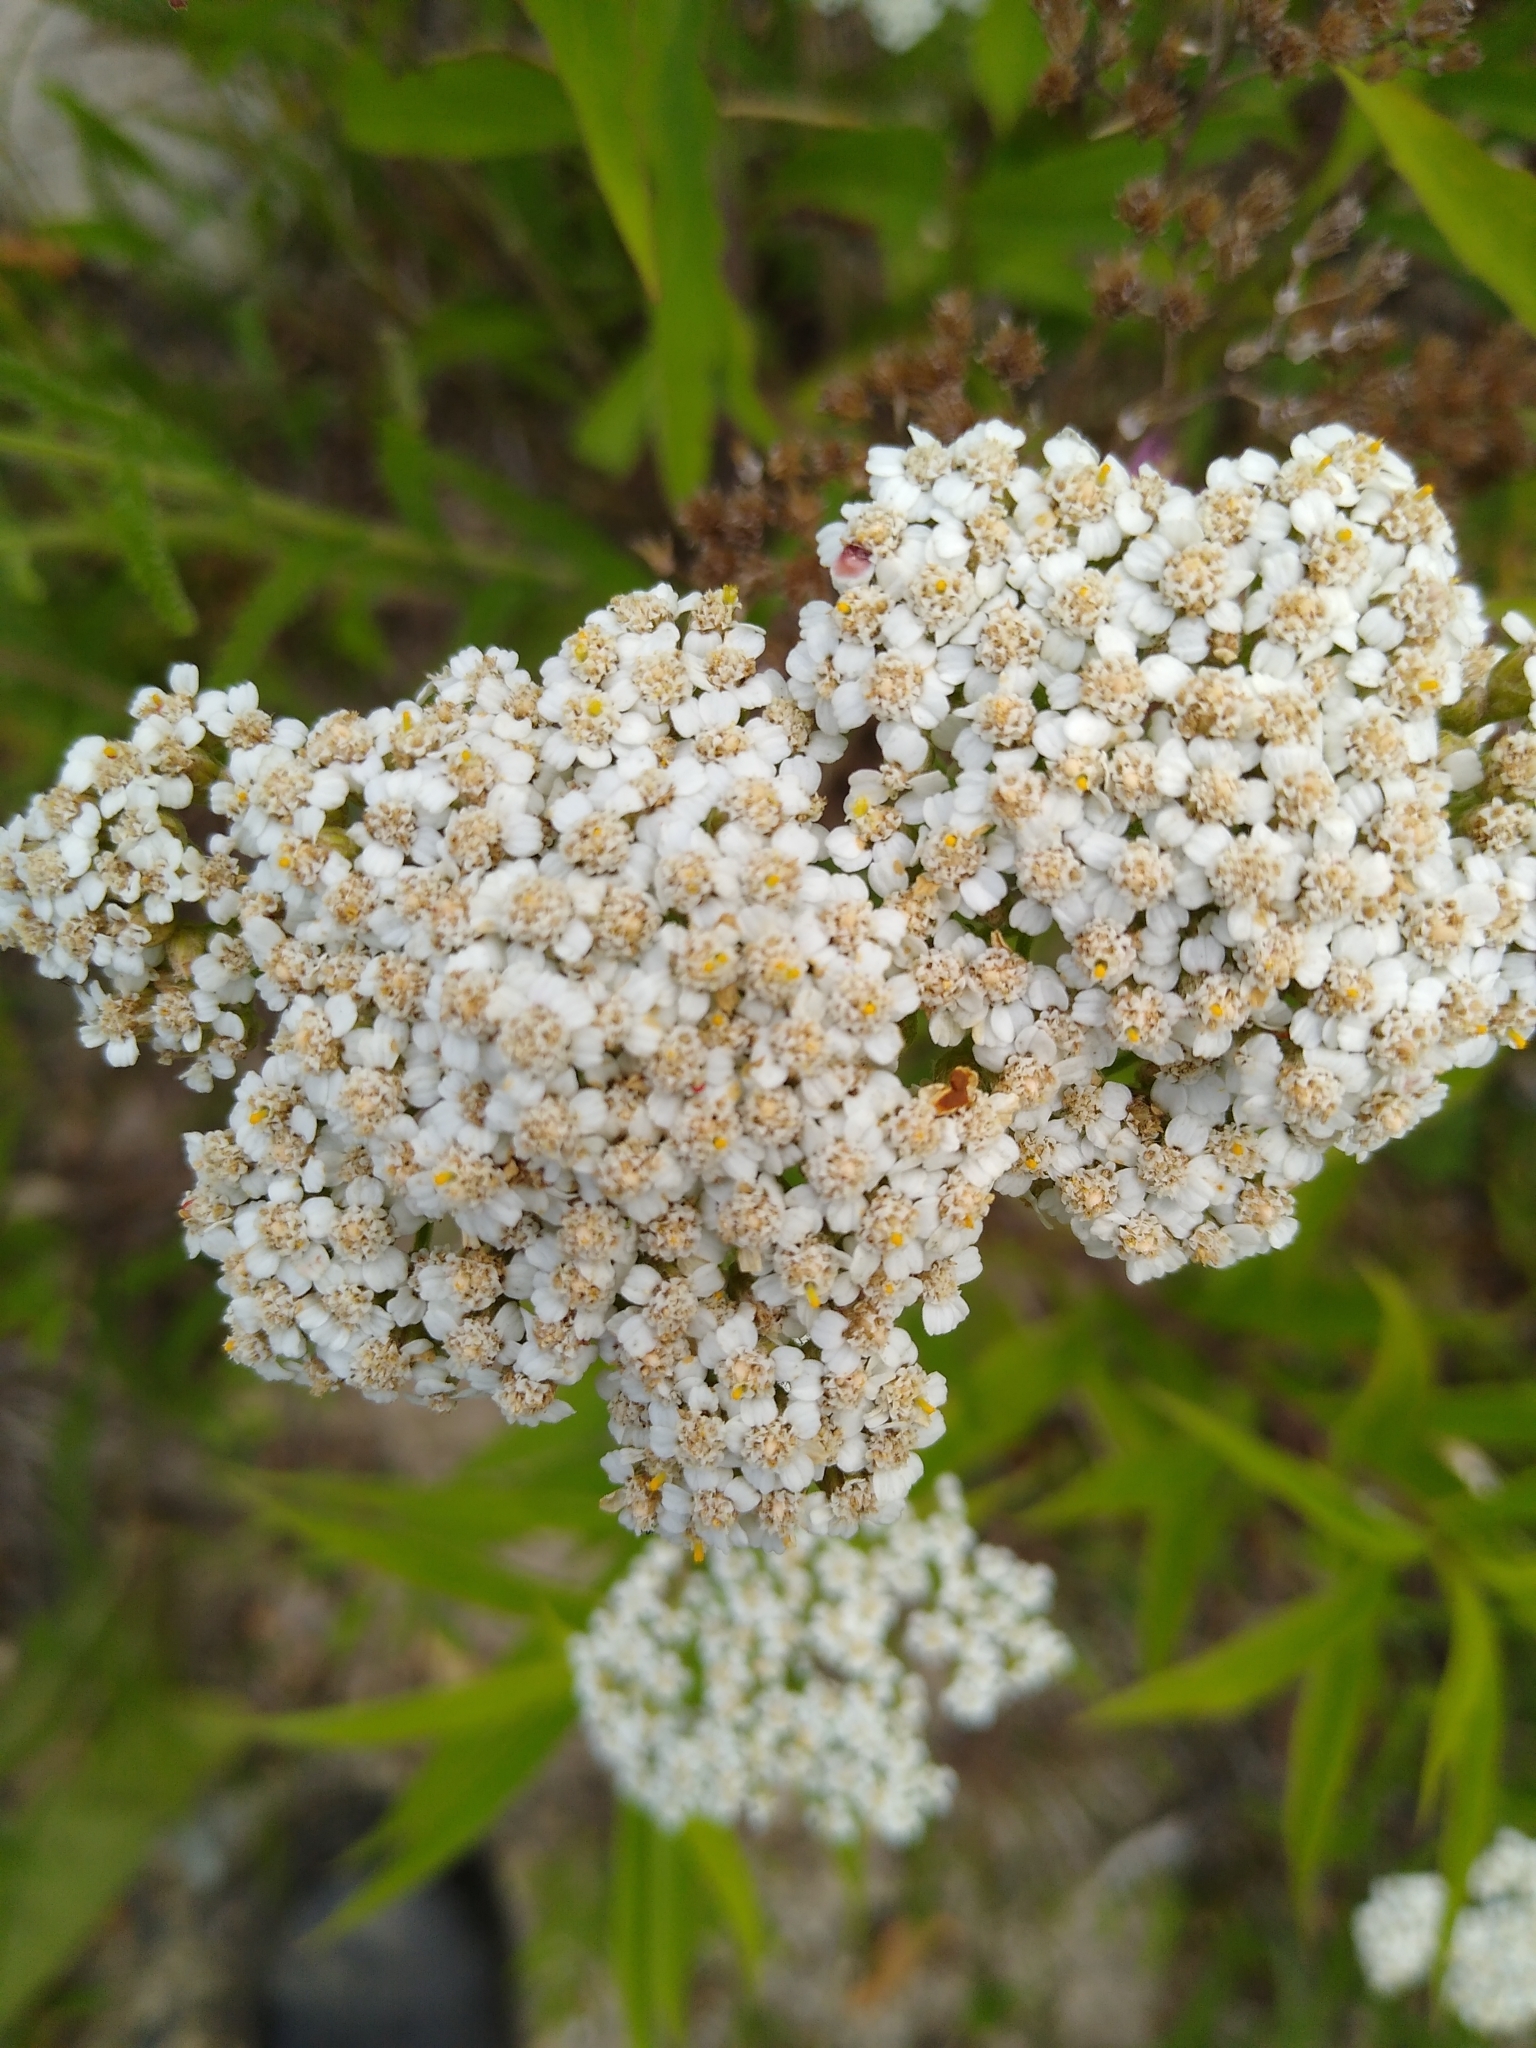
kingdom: Plantae
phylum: Tracheophyta
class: Magnoliopsida
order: Asterales
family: Asteraceae
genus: Achillea
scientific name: Achillea millefolium
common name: Yarrow
